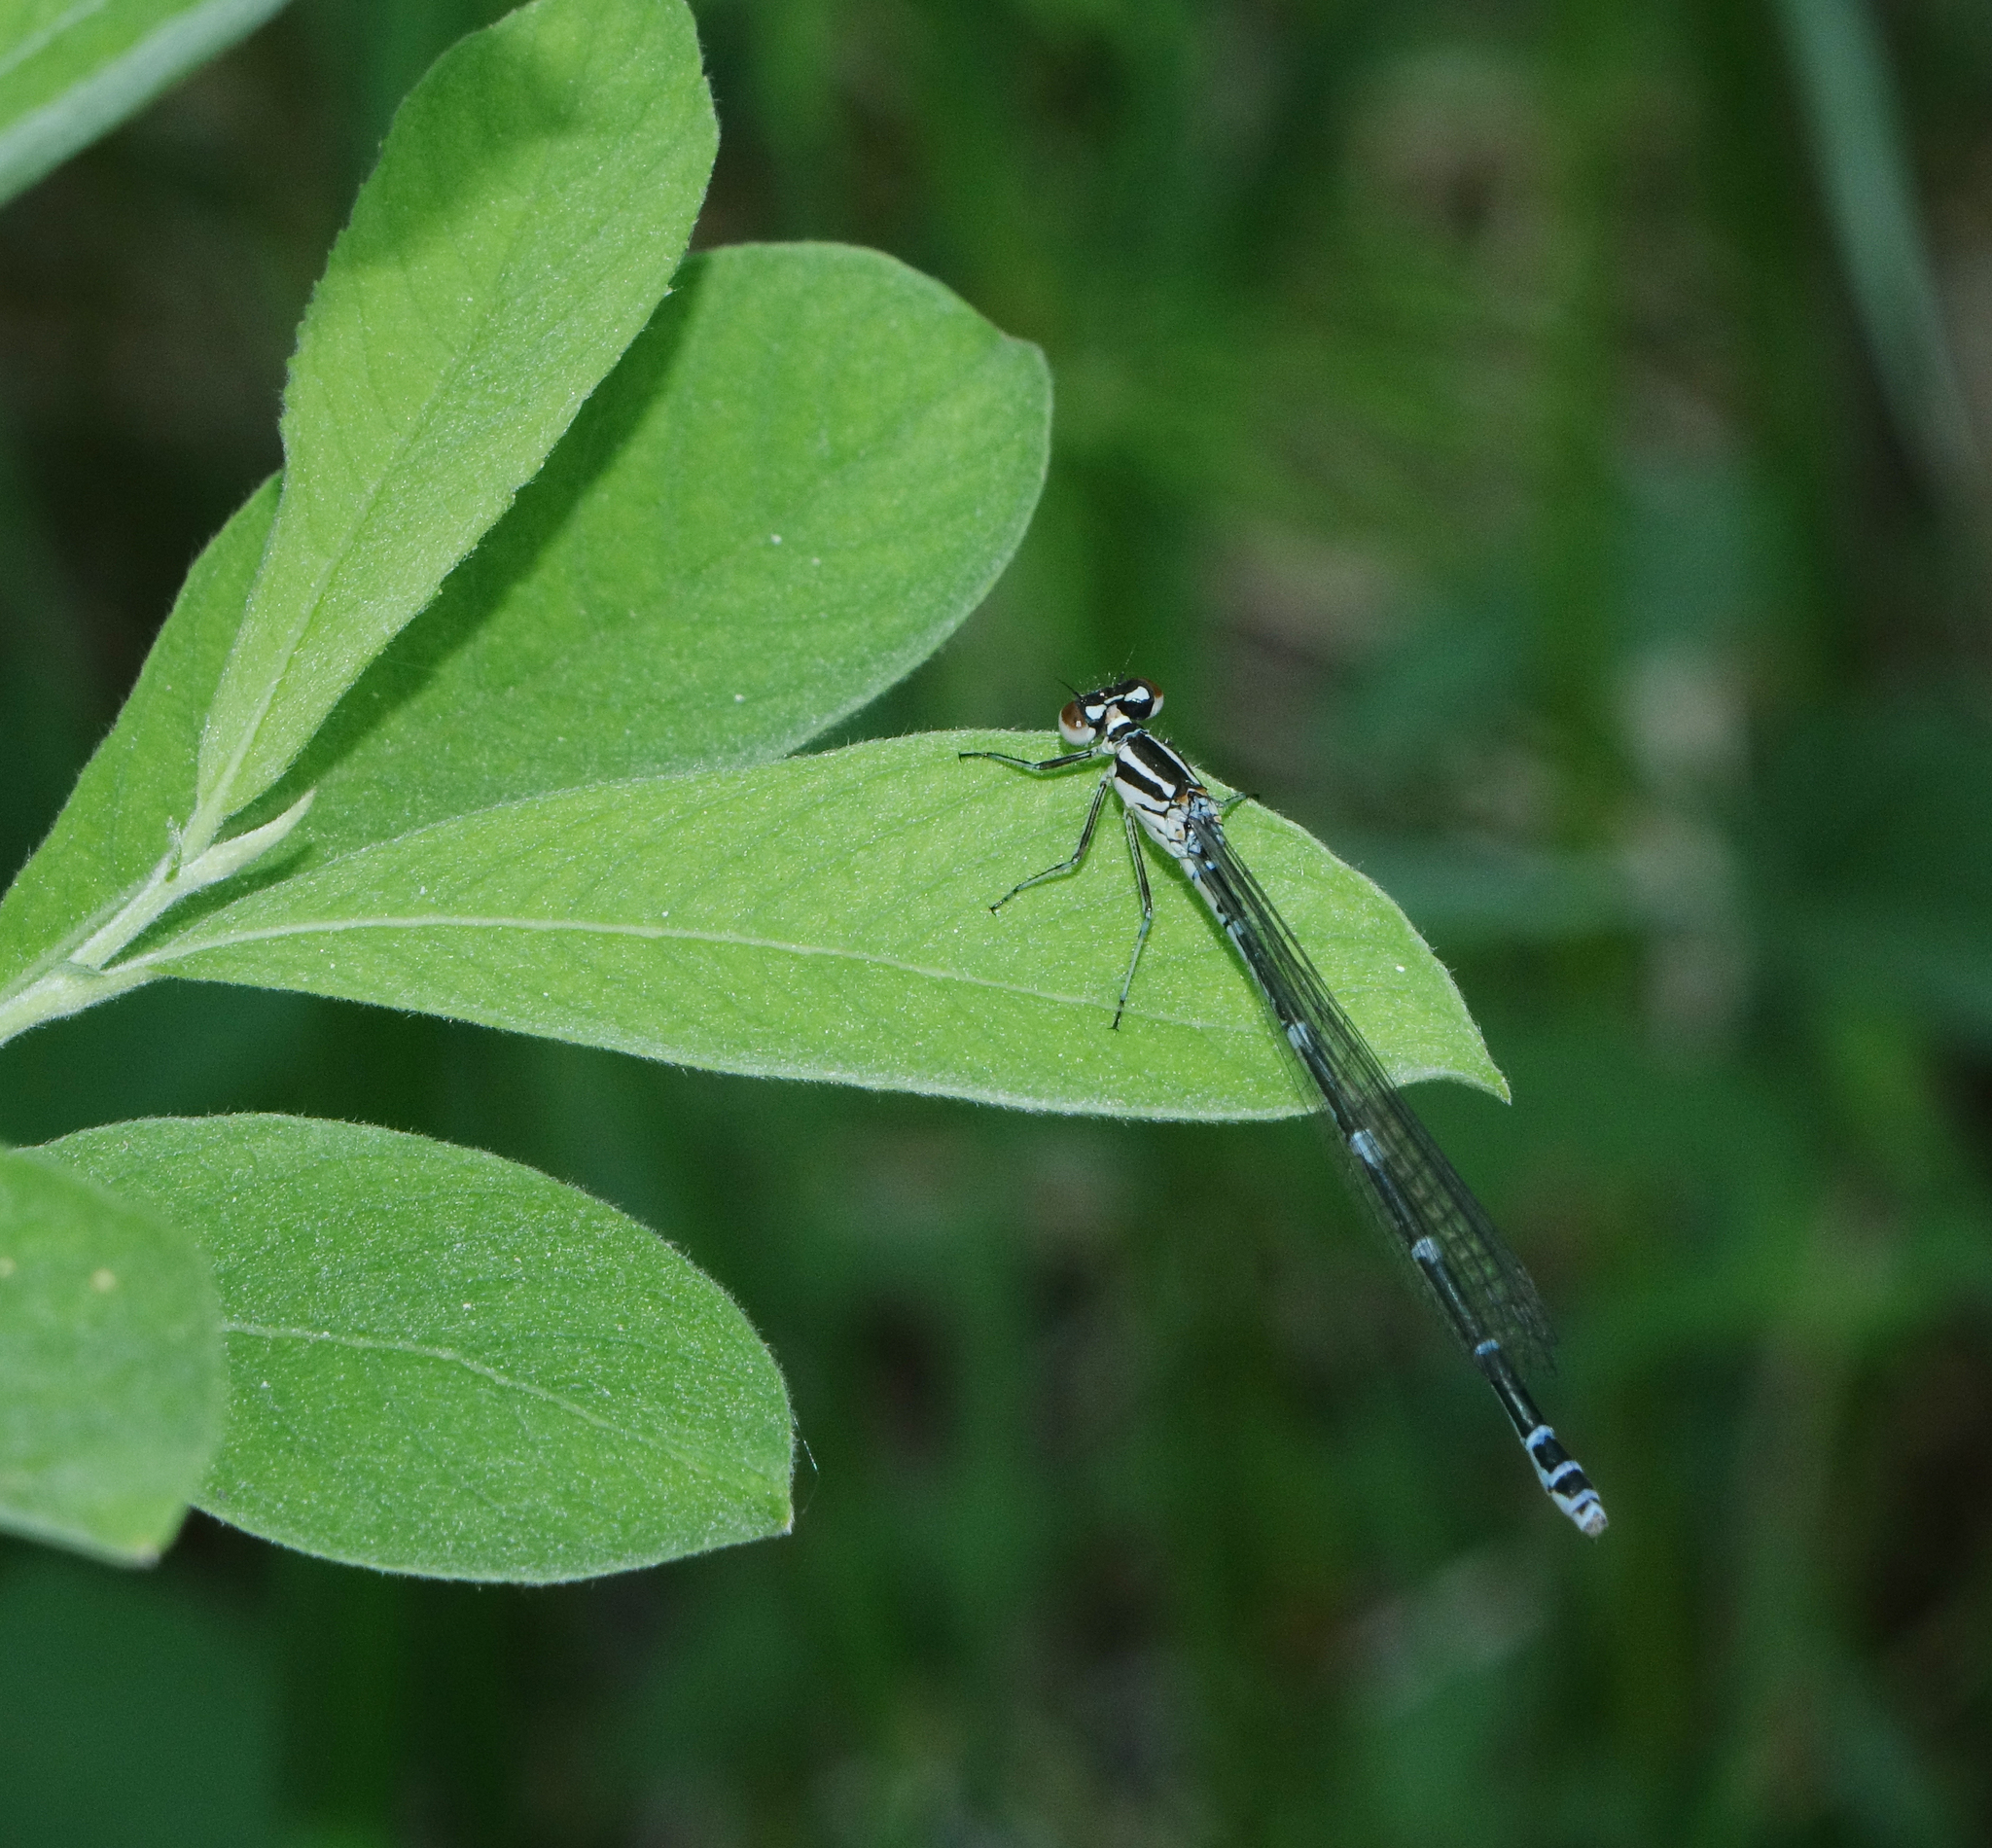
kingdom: Animalia
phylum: Arthropoda
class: Insecta
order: Odonata
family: Coenagrionidae
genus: Coenagrion
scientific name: Coenagrion puella
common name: Azure damselfly
